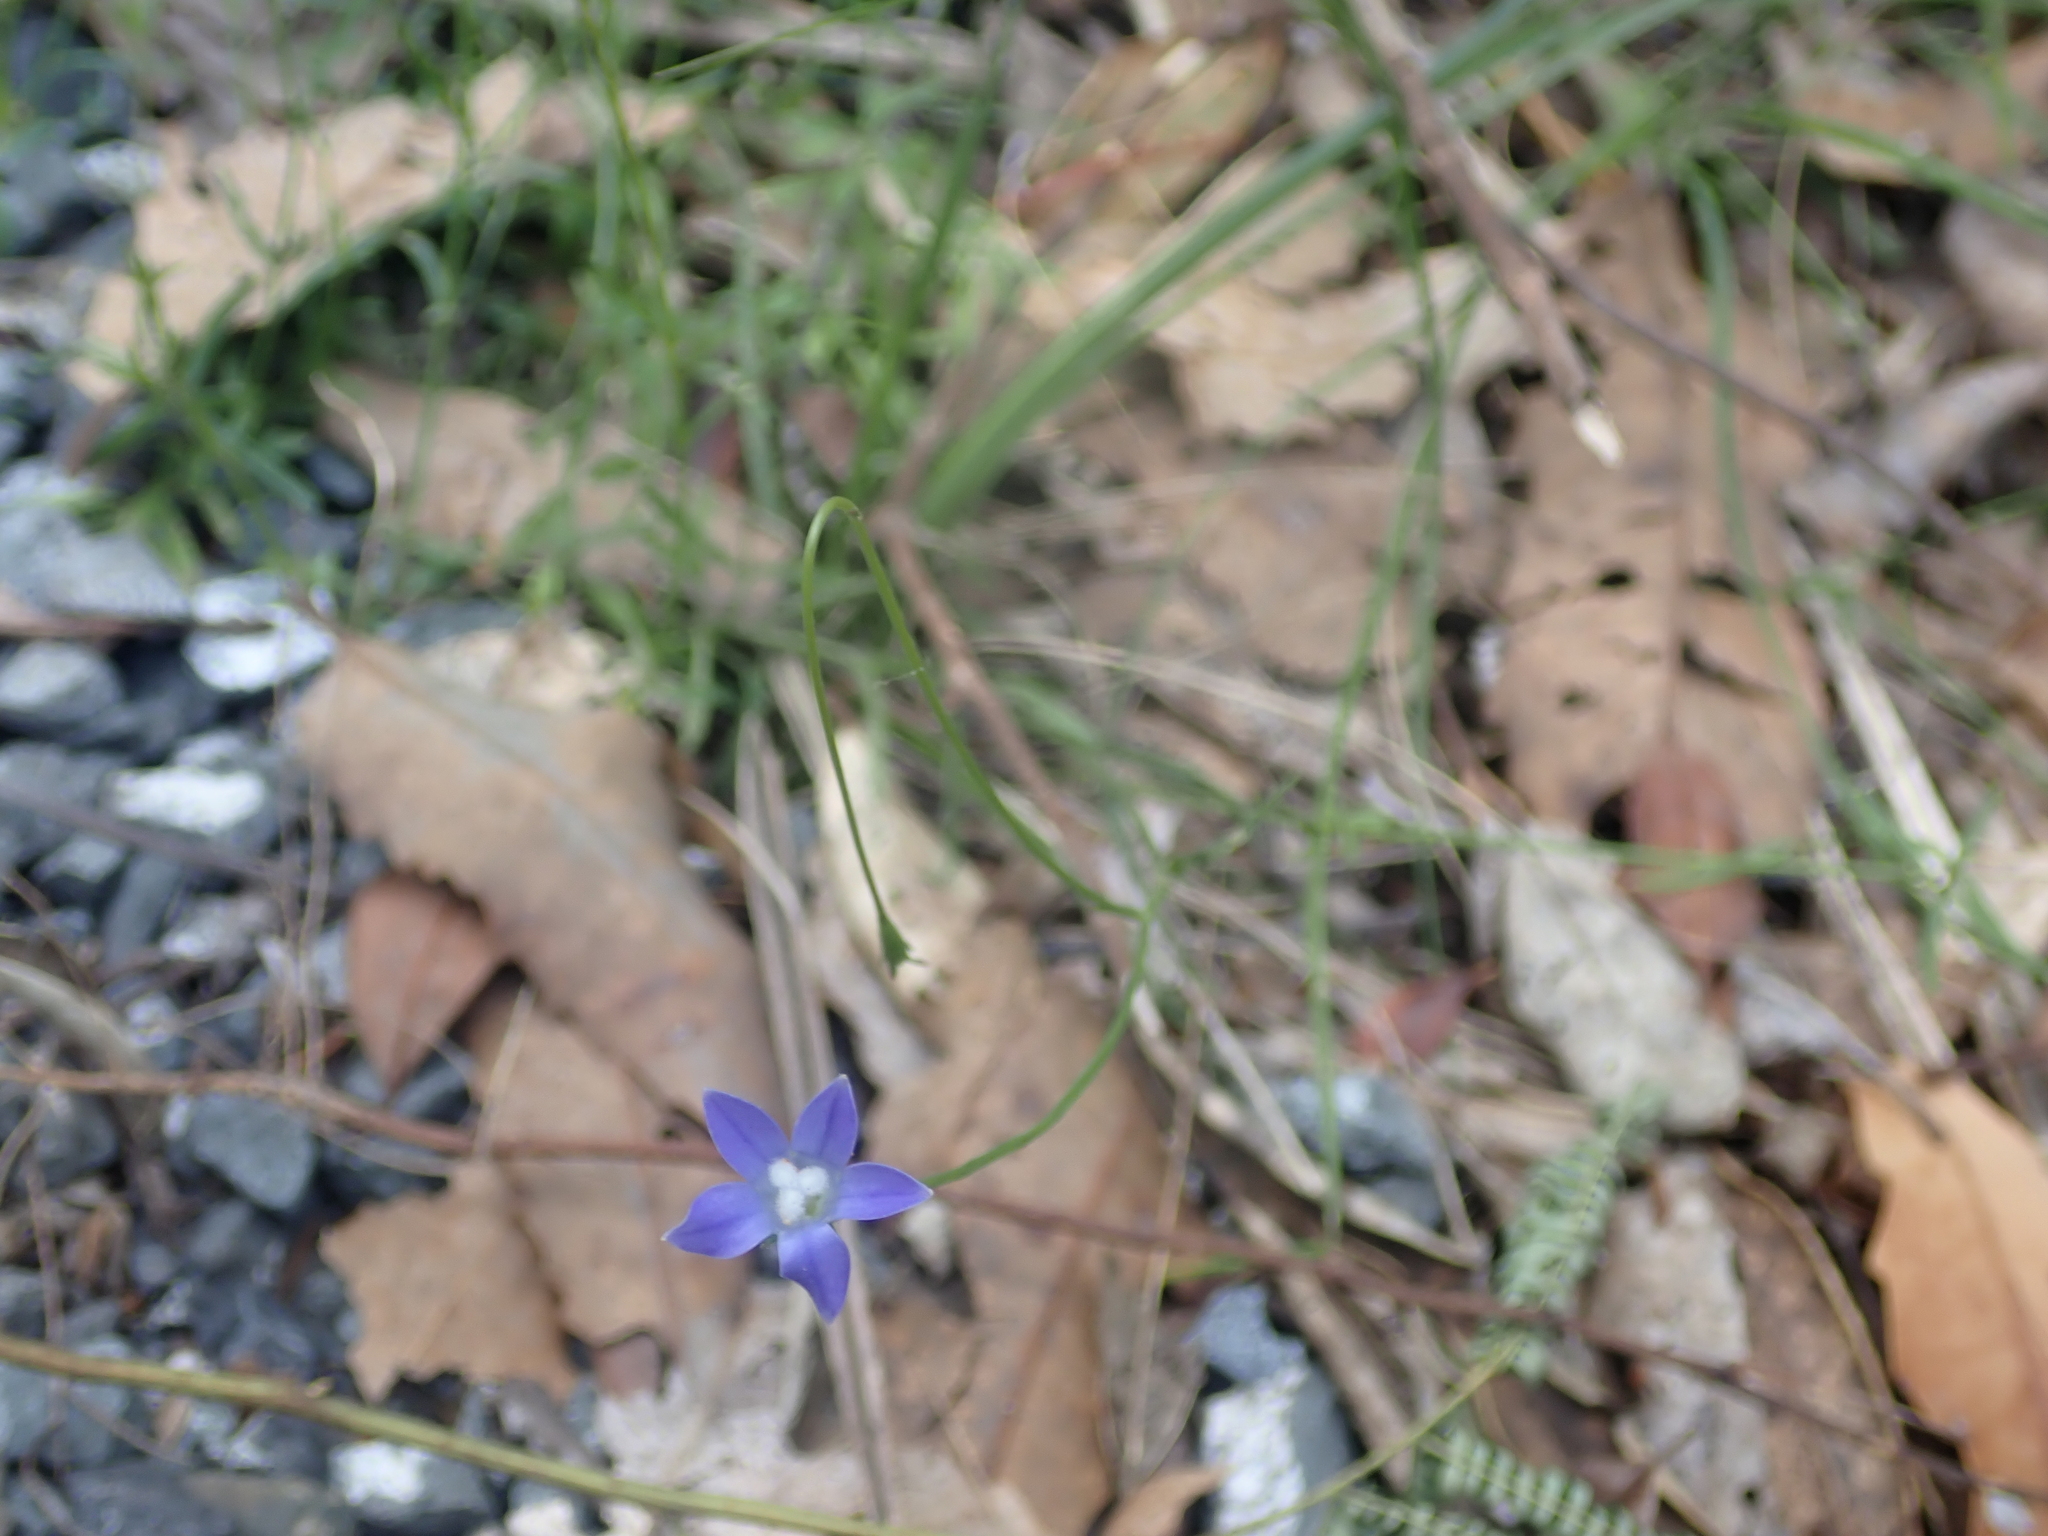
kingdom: Plantae
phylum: Tracheophyta
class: Magnoliopsida
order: Asterales
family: Campanulaceae
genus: Wahlenbergia
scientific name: Wahlenbergia violacea
